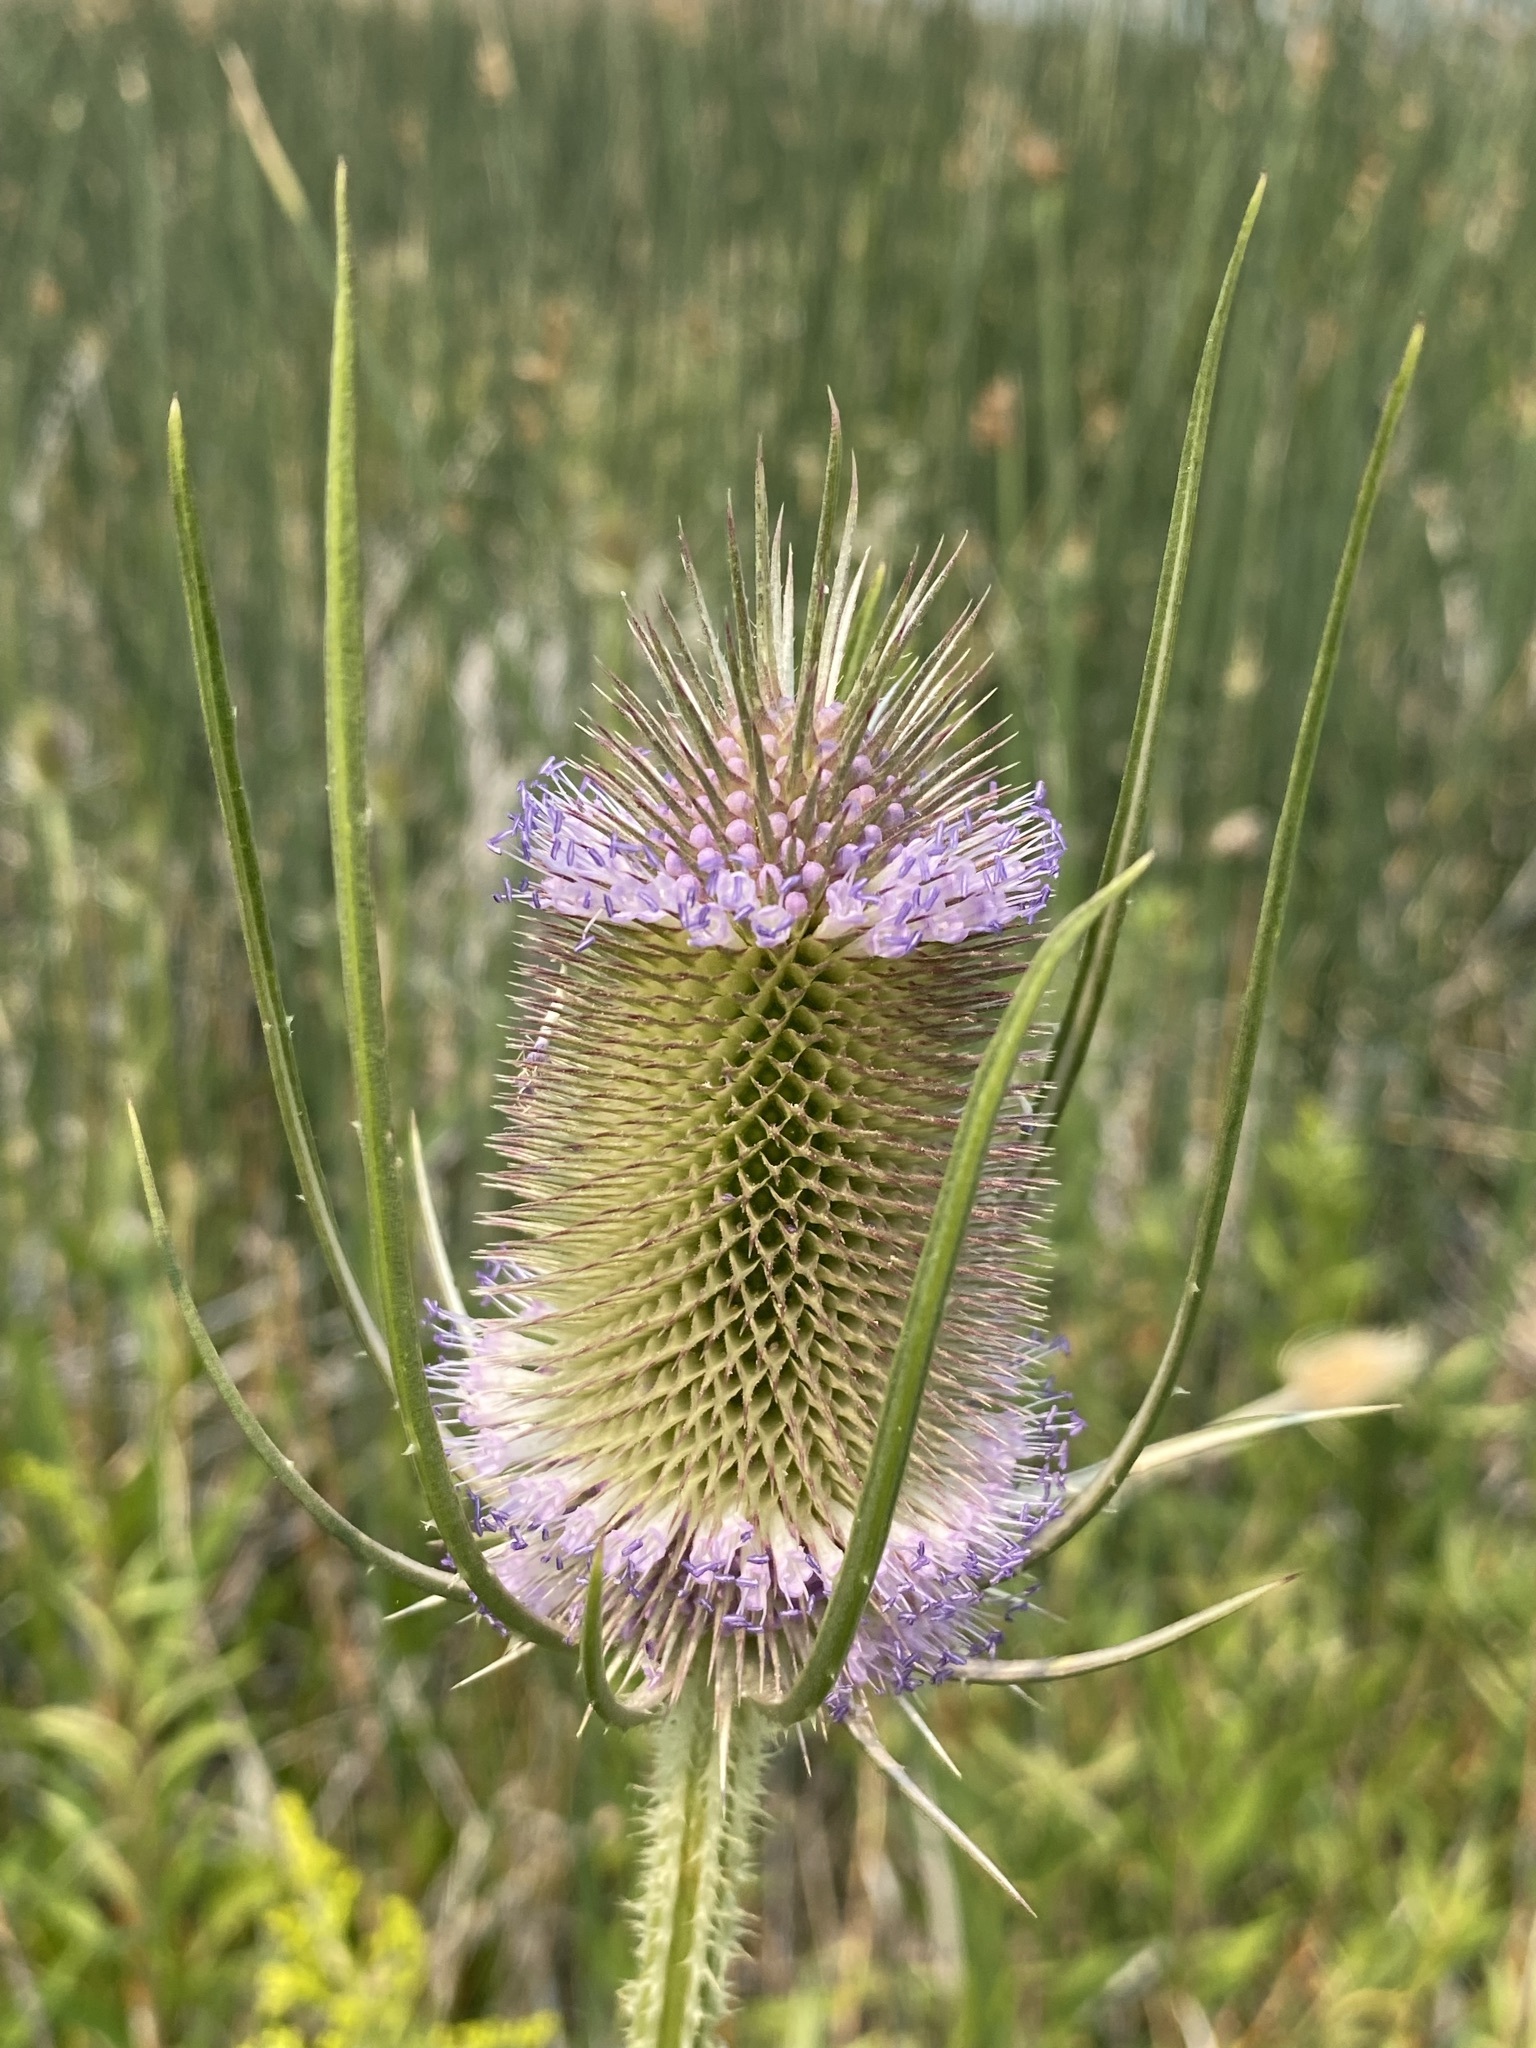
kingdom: Plantae
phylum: Tracheophyta
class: Magnoliopsida
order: Dipsacales
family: Caprifoliaceae
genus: Dipsacus
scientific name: Dipsacus fullonum
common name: Teasel
